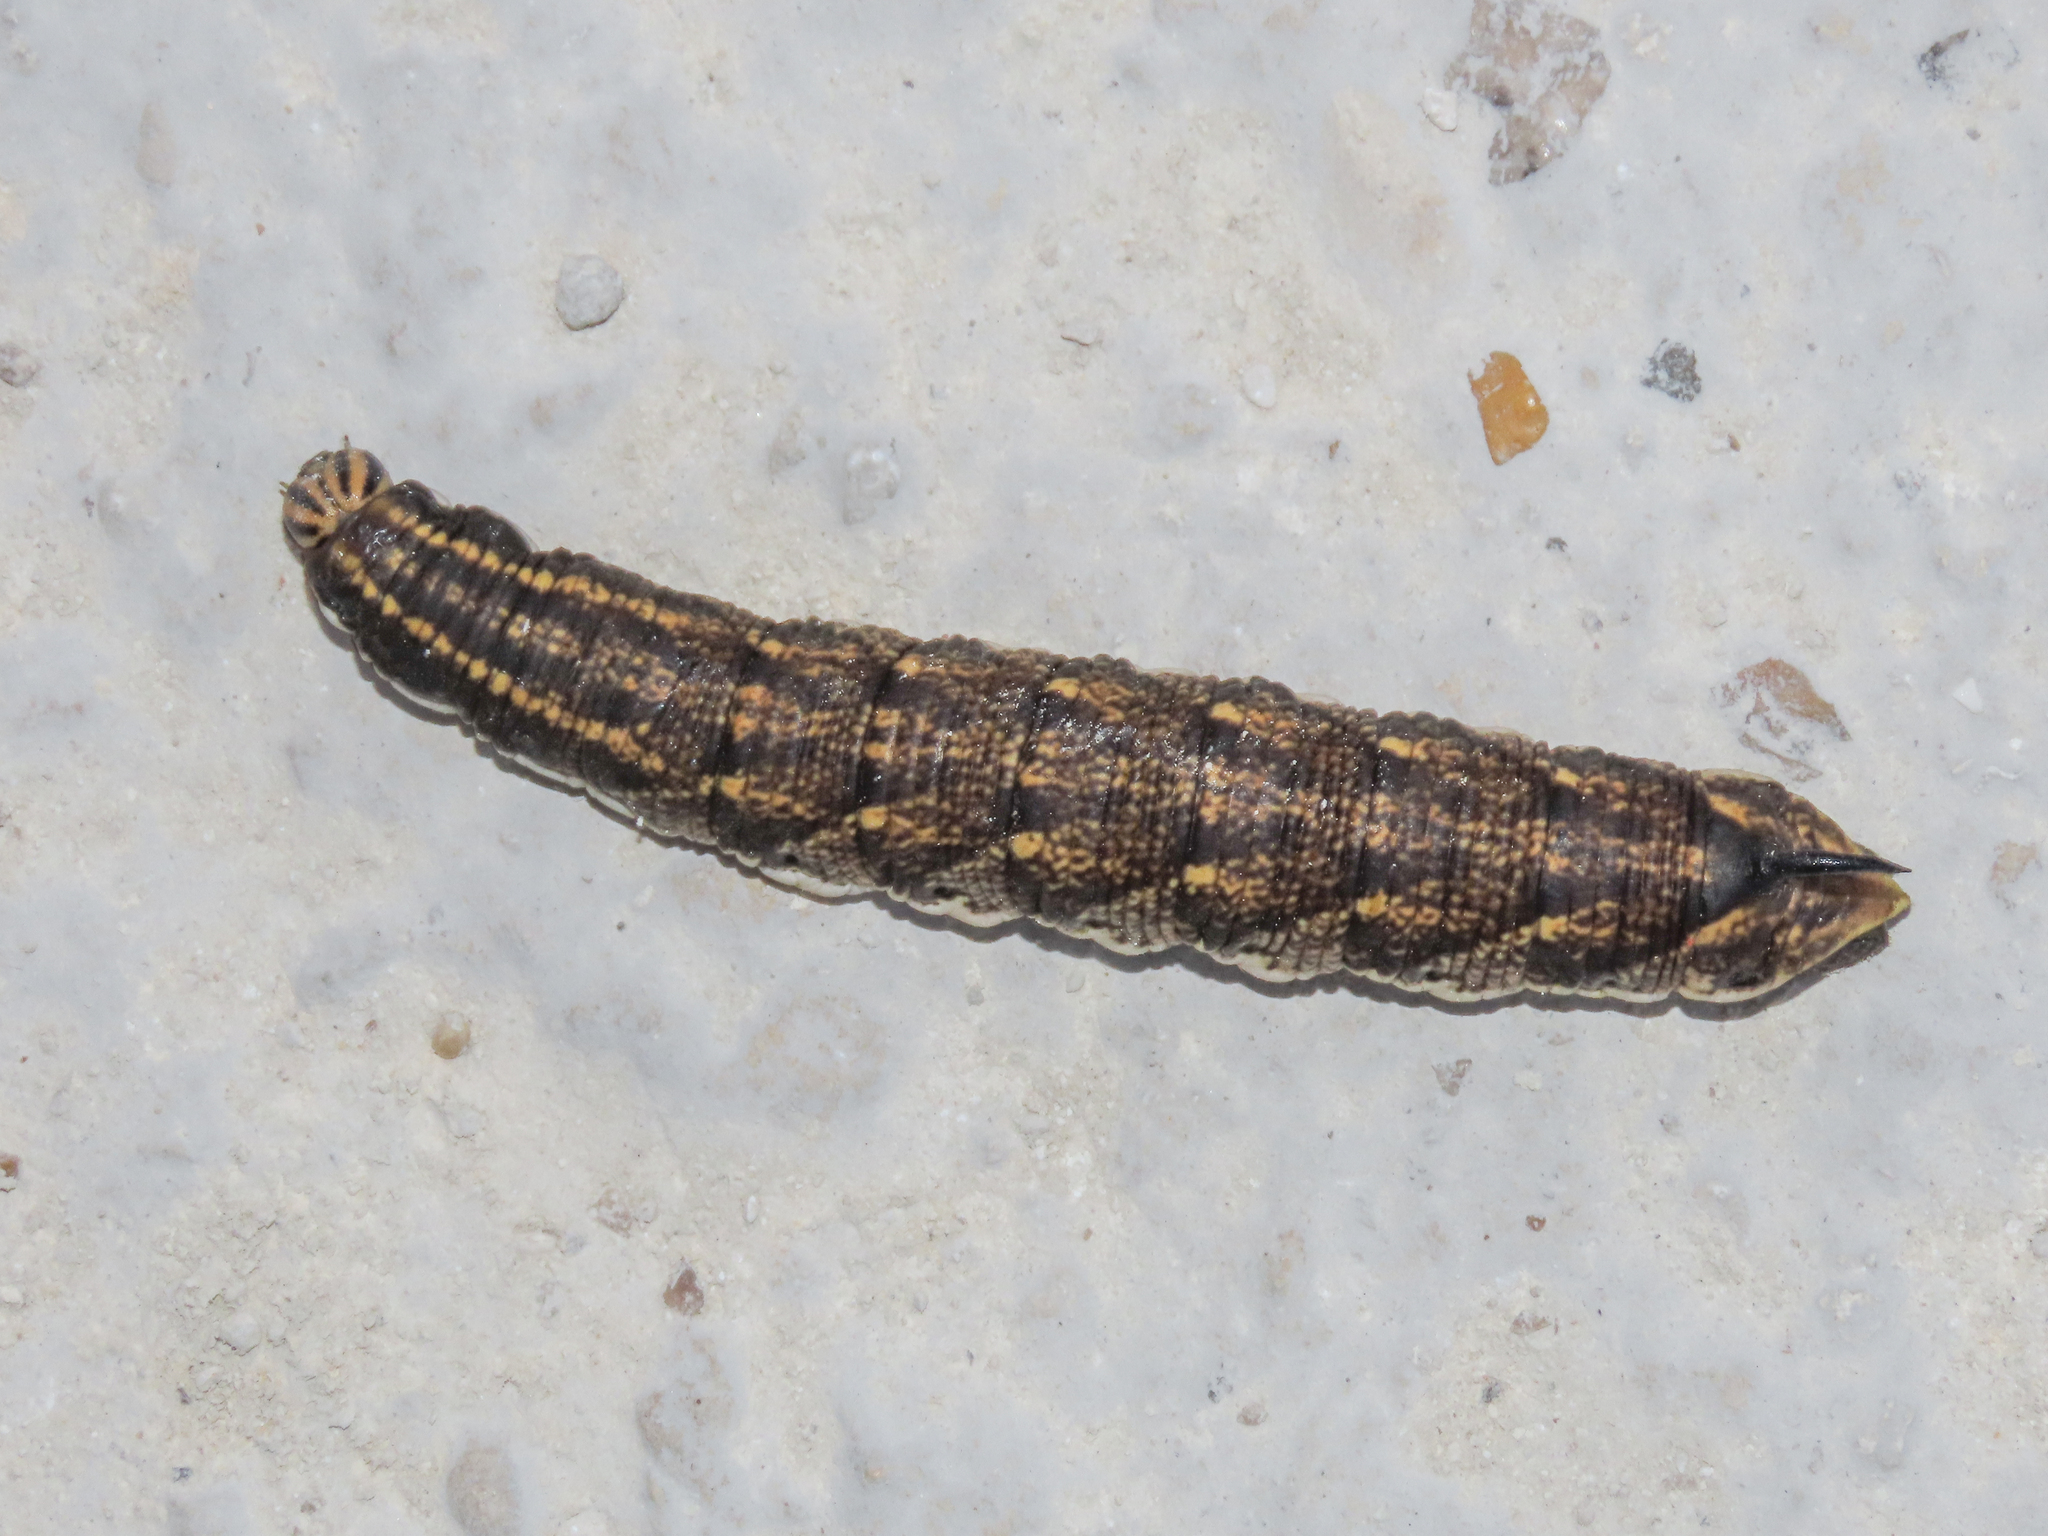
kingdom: Animalia
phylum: Arthropoda
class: Insecta
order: Lepidoptera
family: Sphingidae
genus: Agrius
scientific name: Agrius convolvuli
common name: Convolvulus hawkmoth
